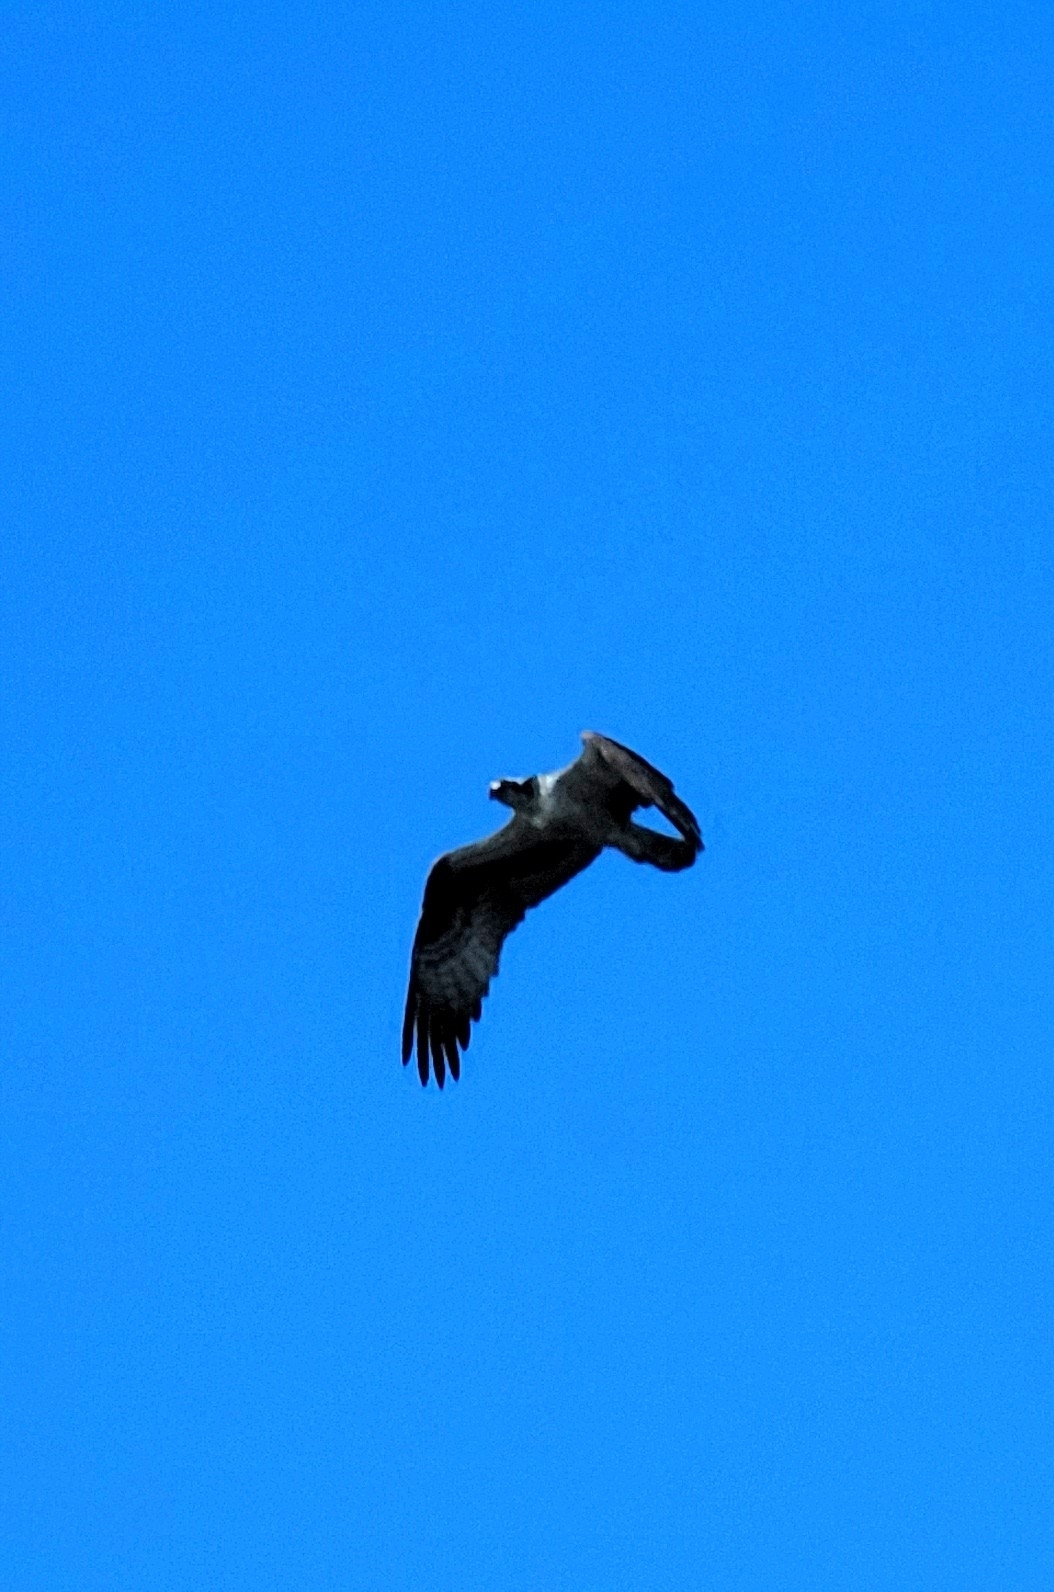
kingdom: Animalia
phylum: Chordata
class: Aves
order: Accipitriformes
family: Pandionidae
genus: Pandion
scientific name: Pandion haliaetus
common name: Osprey
